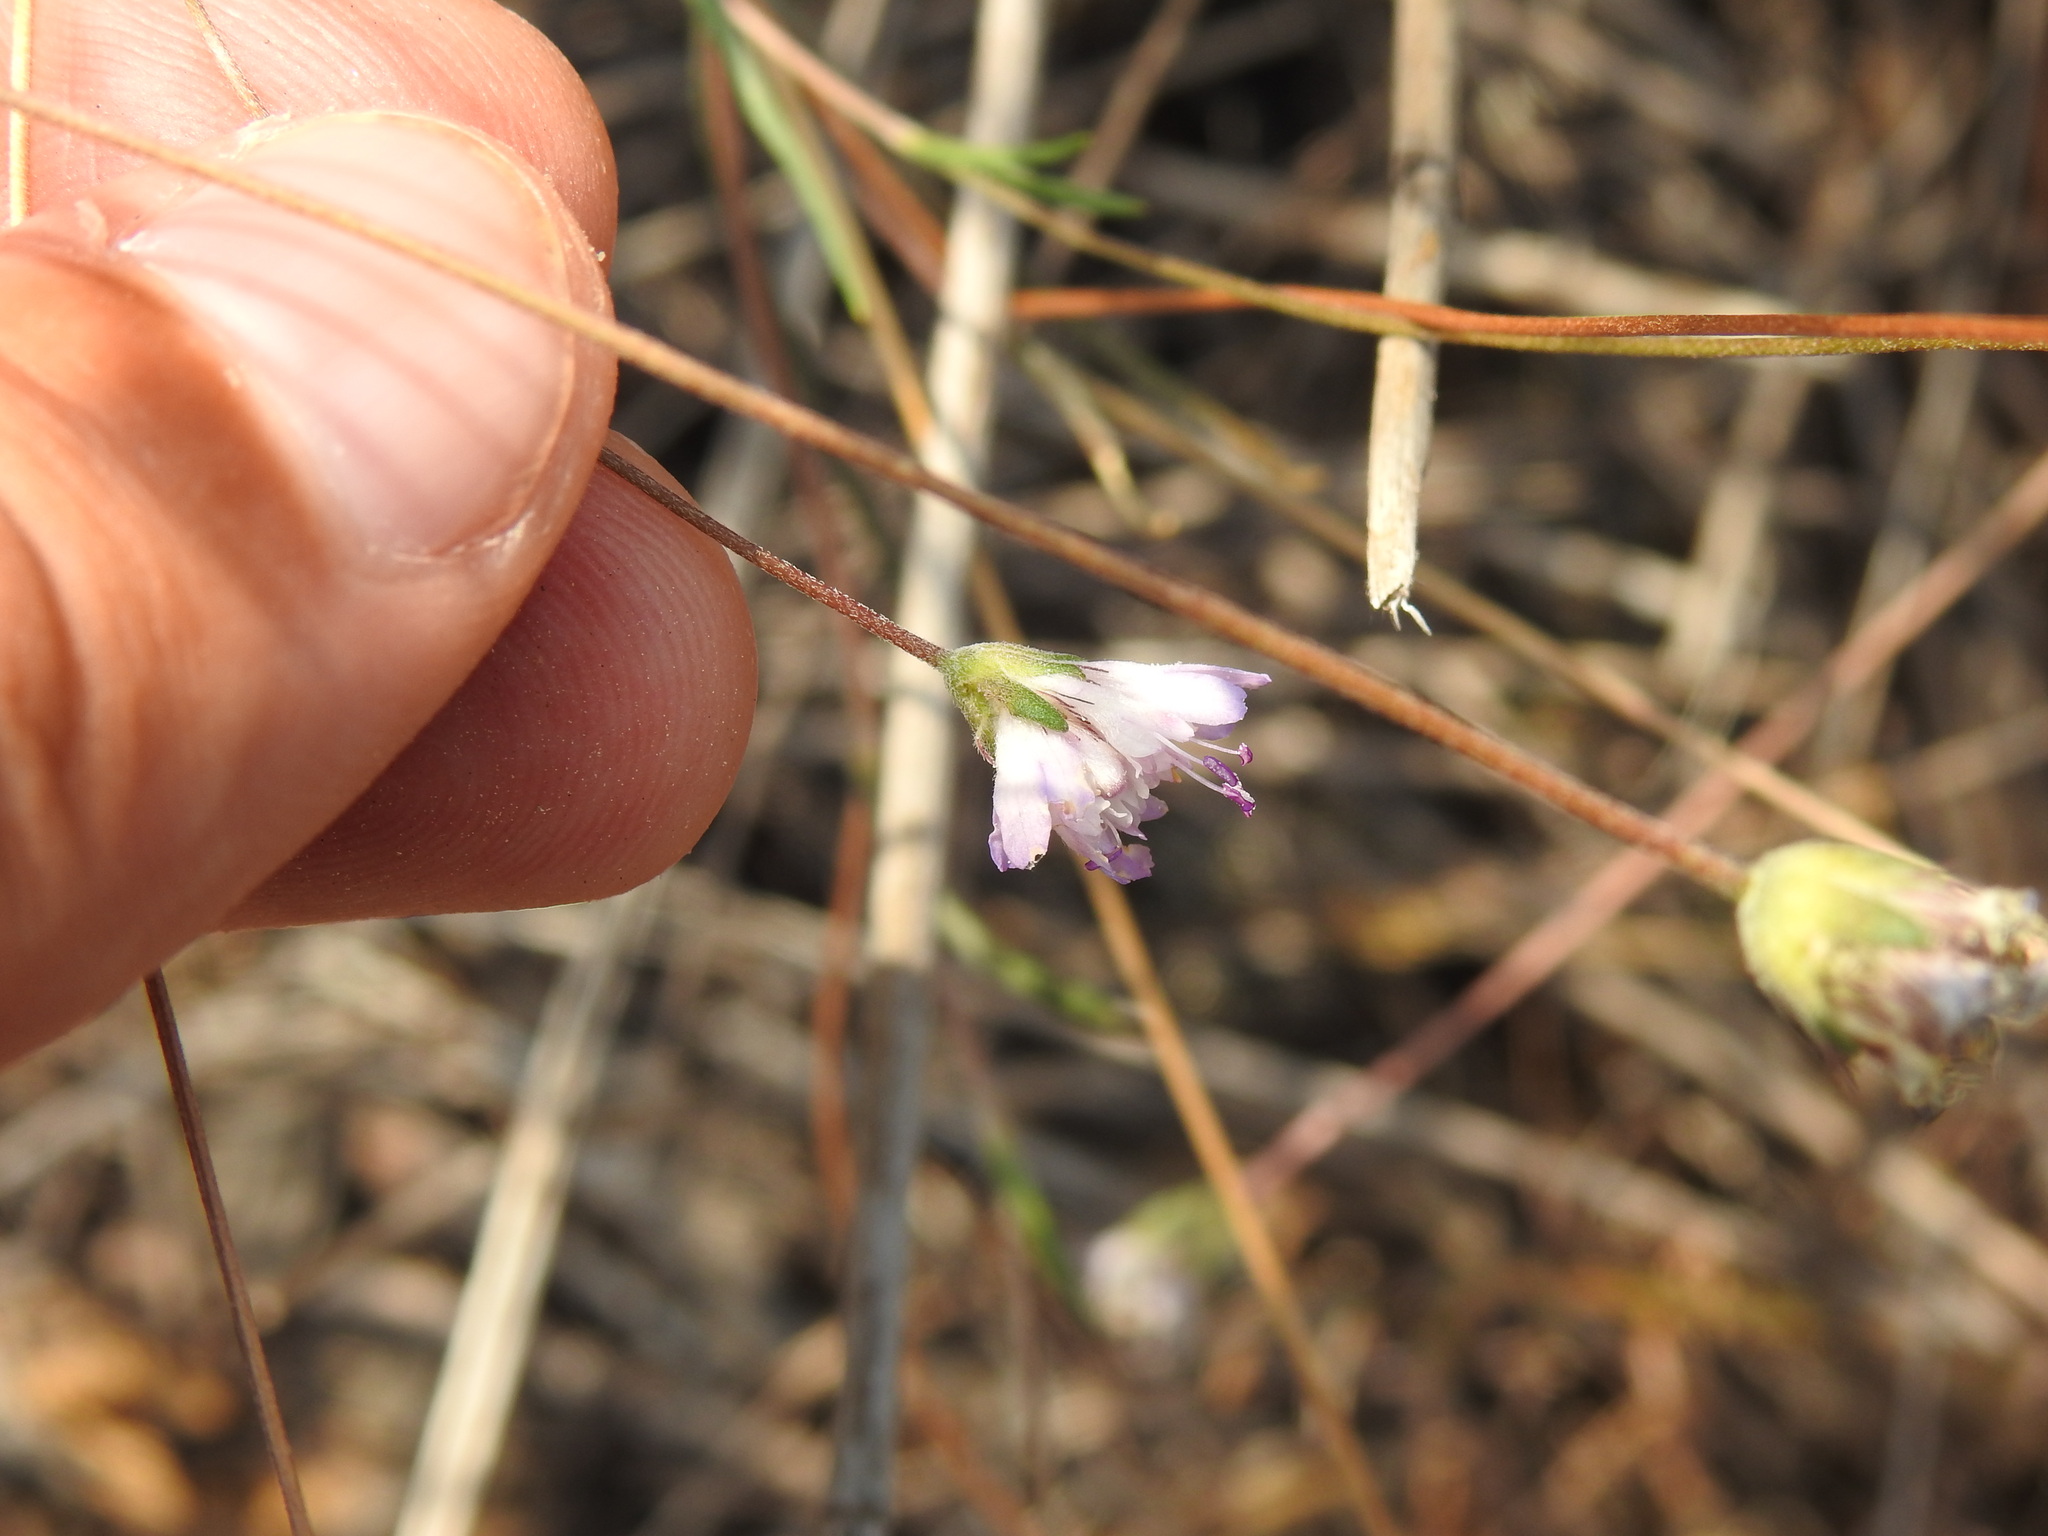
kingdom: Plantae
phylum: Tracheophyta
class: Magnoliopsida
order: Dipsacales
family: Caprifoliaceae
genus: Pycnocomon
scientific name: Pycnocomon intermedium
